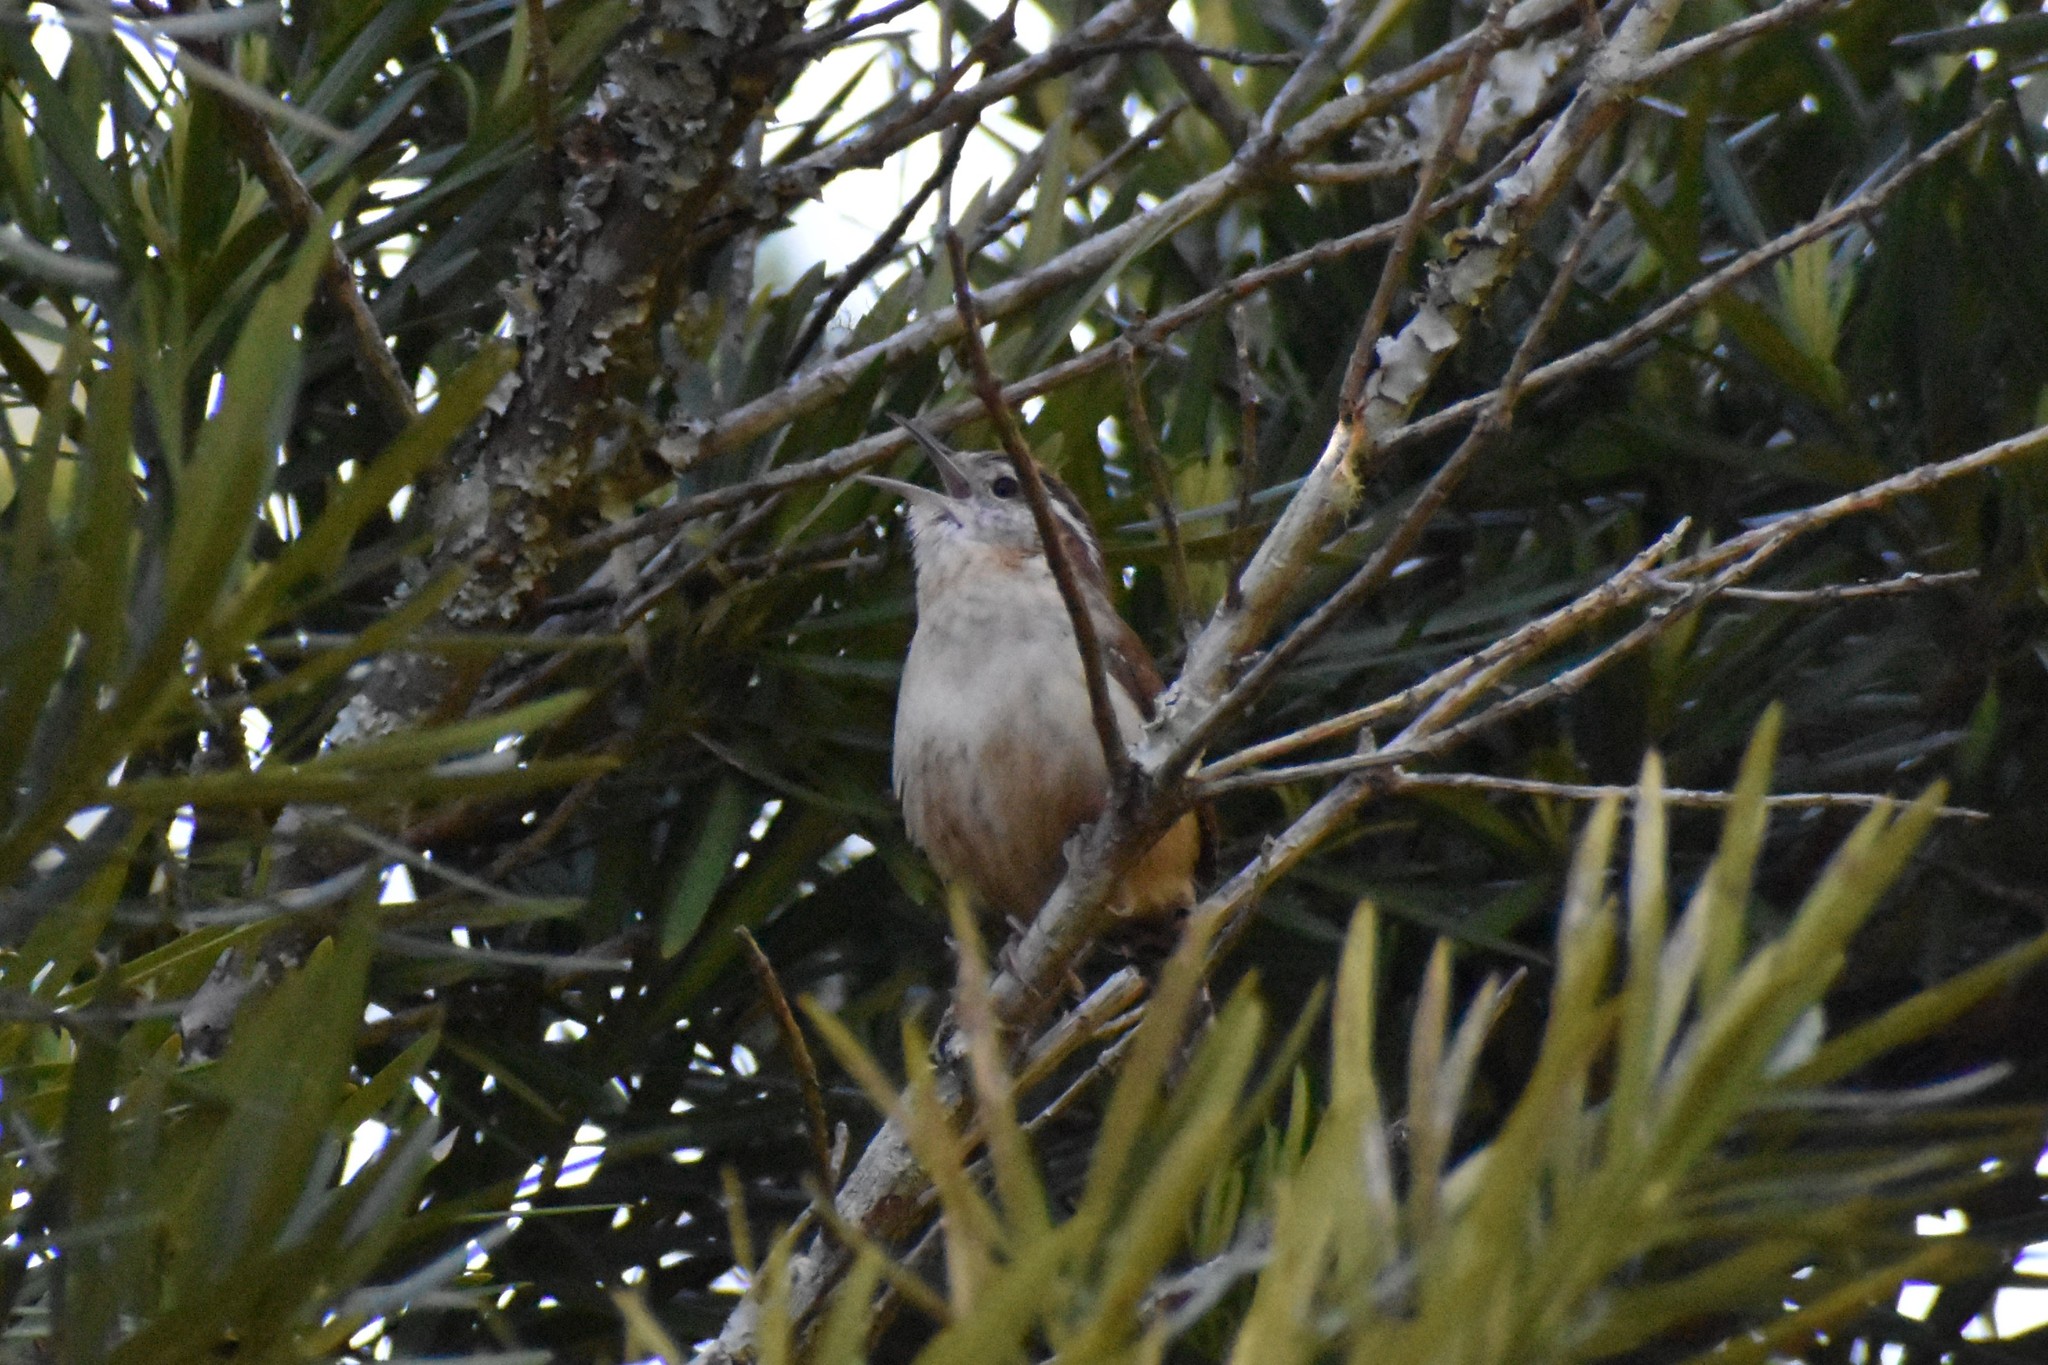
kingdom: Animalia
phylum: Chordata
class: Aves
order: Passeriformes
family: Troglodytidae
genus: Thryothorus
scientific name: Thryothorus ludovicianus
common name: Carolina wren
